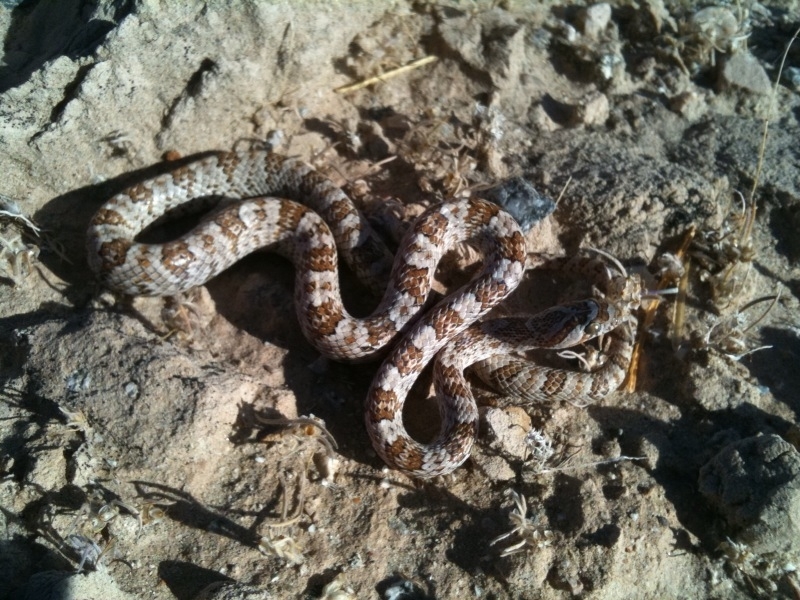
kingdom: Animalia
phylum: Chordata
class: Squamata
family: Colubridae
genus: Trimorphodon
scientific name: Trimorphodon lyrophanes
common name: Baja california lyre snake
